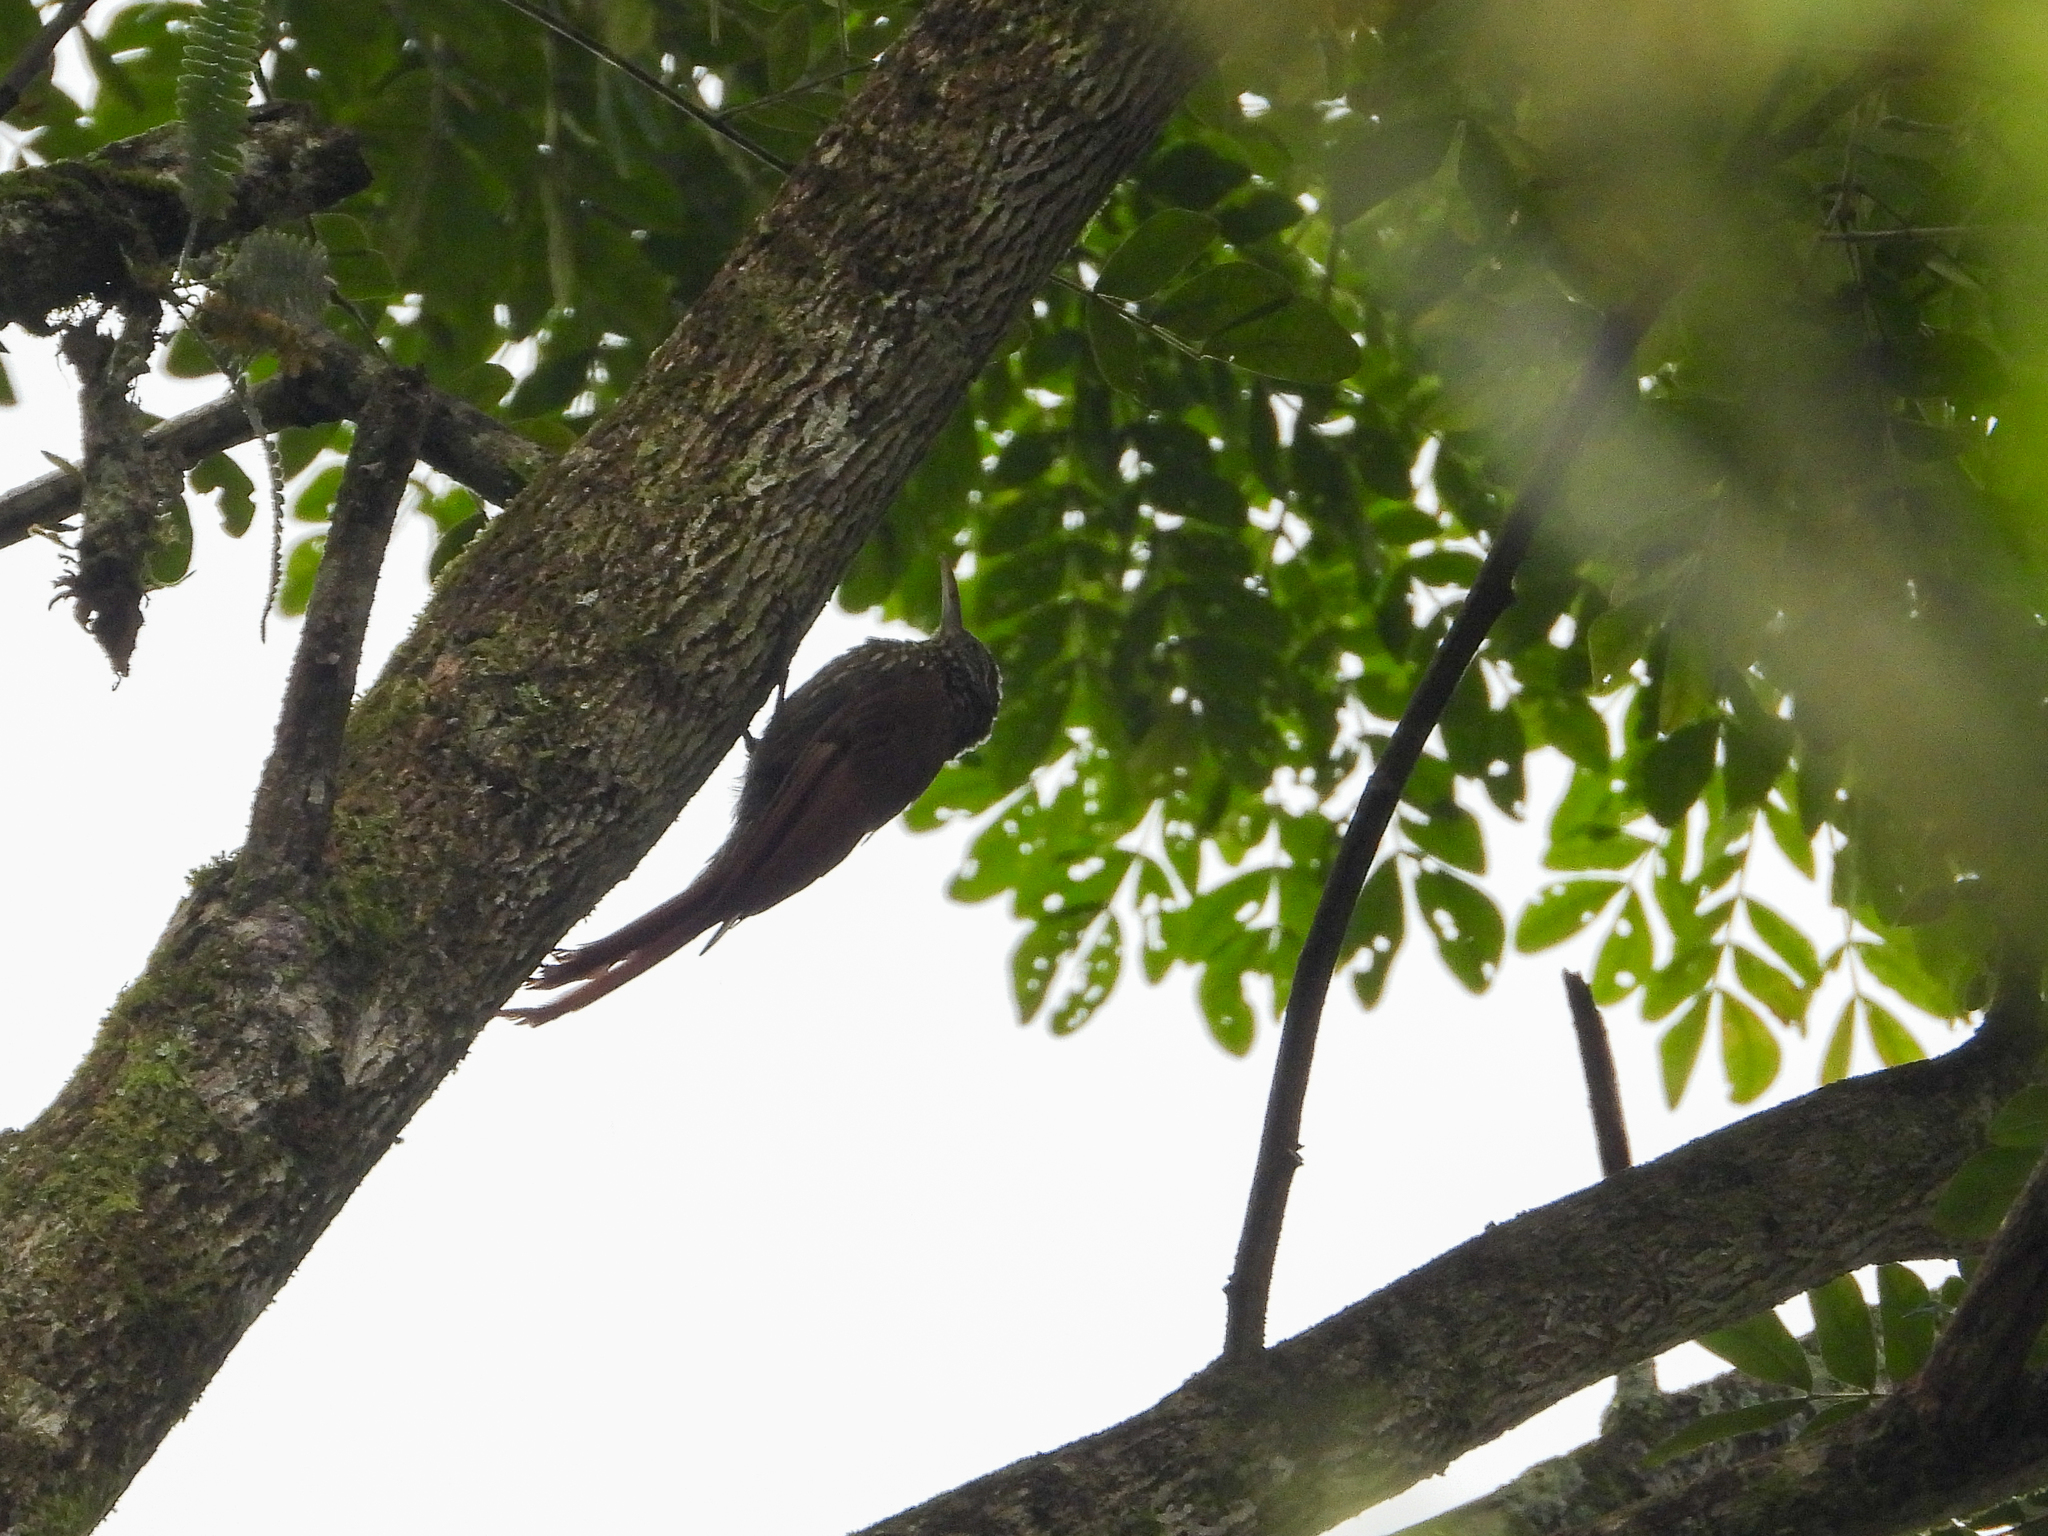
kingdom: Animalia
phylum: Chordata
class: Aves
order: Passeriformes
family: Furnariidae
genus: Lepidocolaptes
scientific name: Lepidocolaptes souleyetii
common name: Streak-headed woodcreeper
